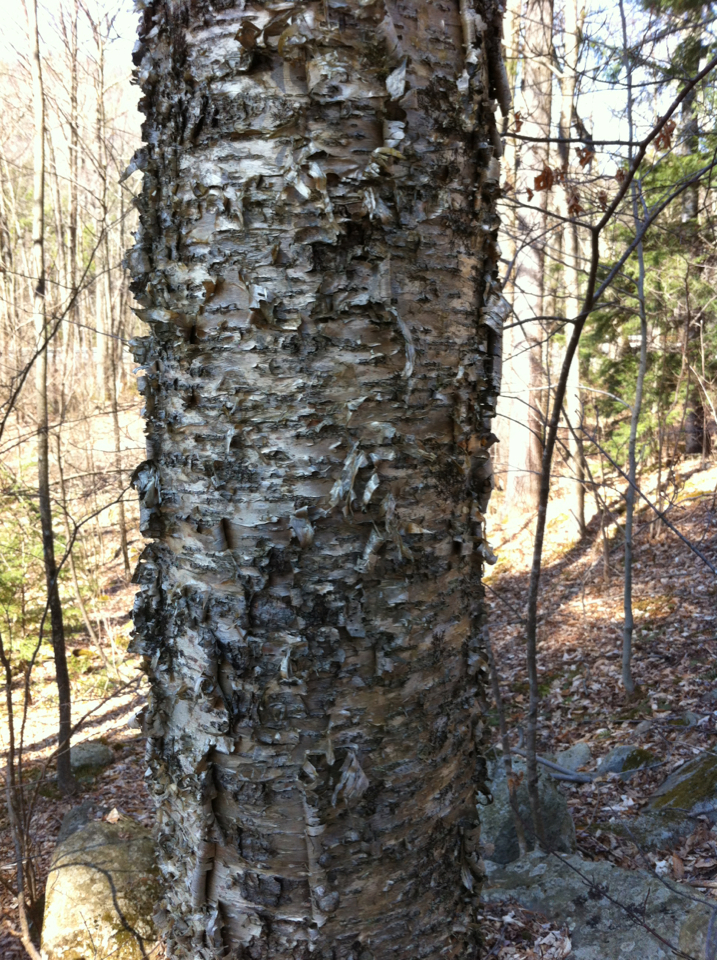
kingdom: Plantae
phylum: Tracheophyta
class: Magnoliopsida
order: Fagales
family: Betulaceae
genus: Betula
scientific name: Betula alleghaniensis
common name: Yellow birch
